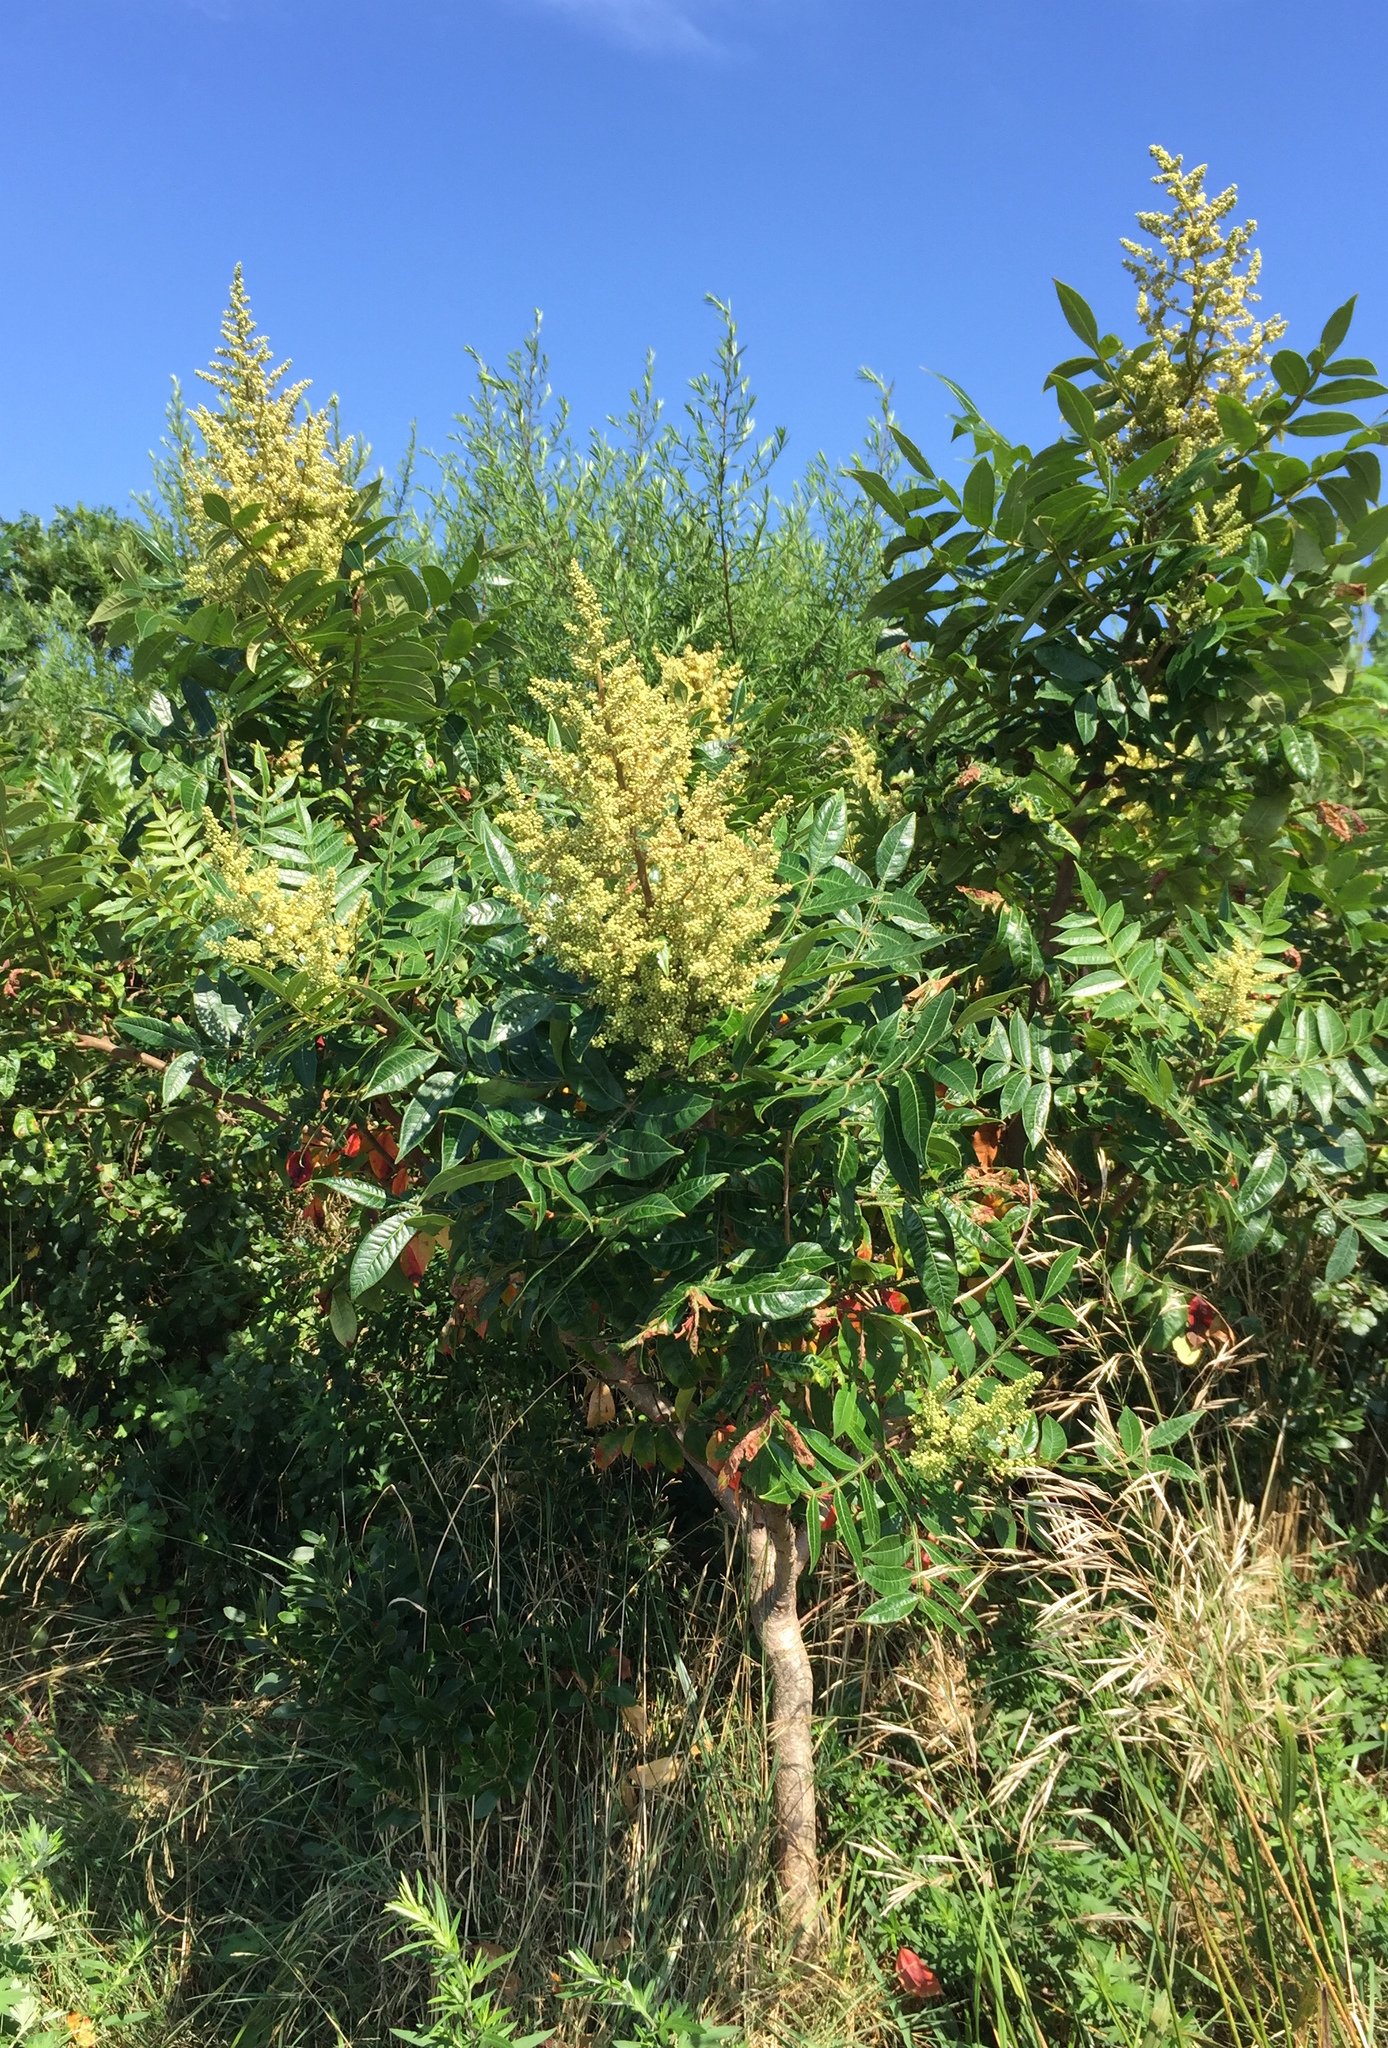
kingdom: Plantae
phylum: Tracheophyta
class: Magnoliopsida
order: Sapindales
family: Anacardiaceae
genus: Rhus
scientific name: Rhus copallina
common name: Shining sumac
